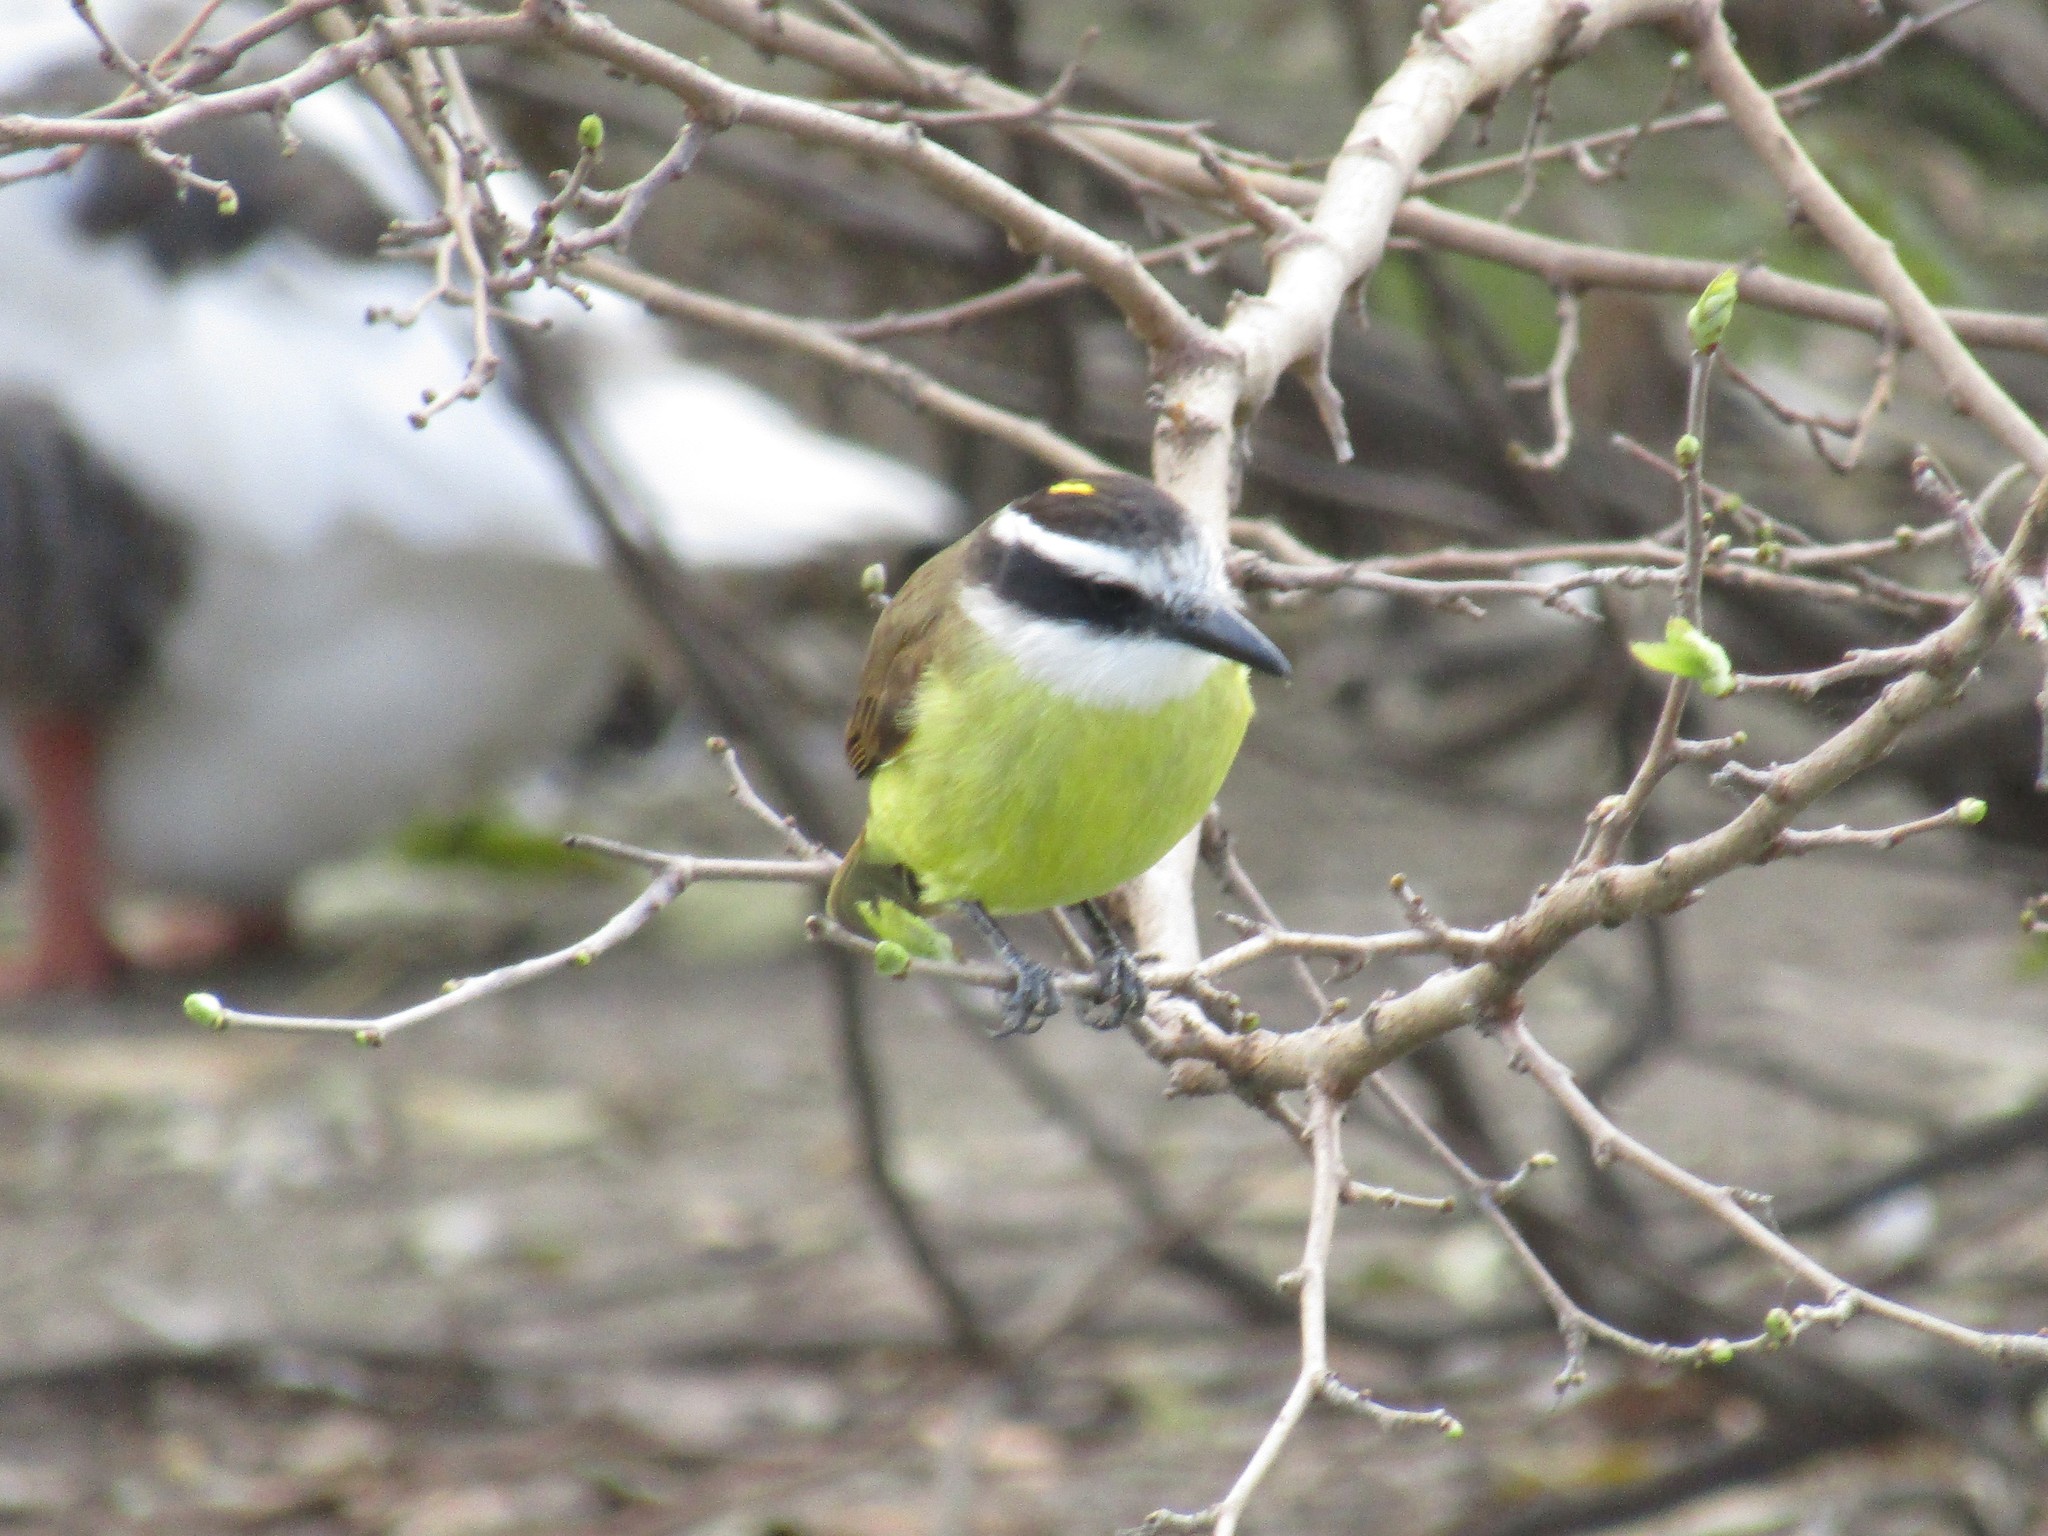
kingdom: Animalia
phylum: Chordata
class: Aves
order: Passeriformes
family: Tyrannidae
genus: Pitangus
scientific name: Pitangus sulphuratus
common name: Great kiskadee
